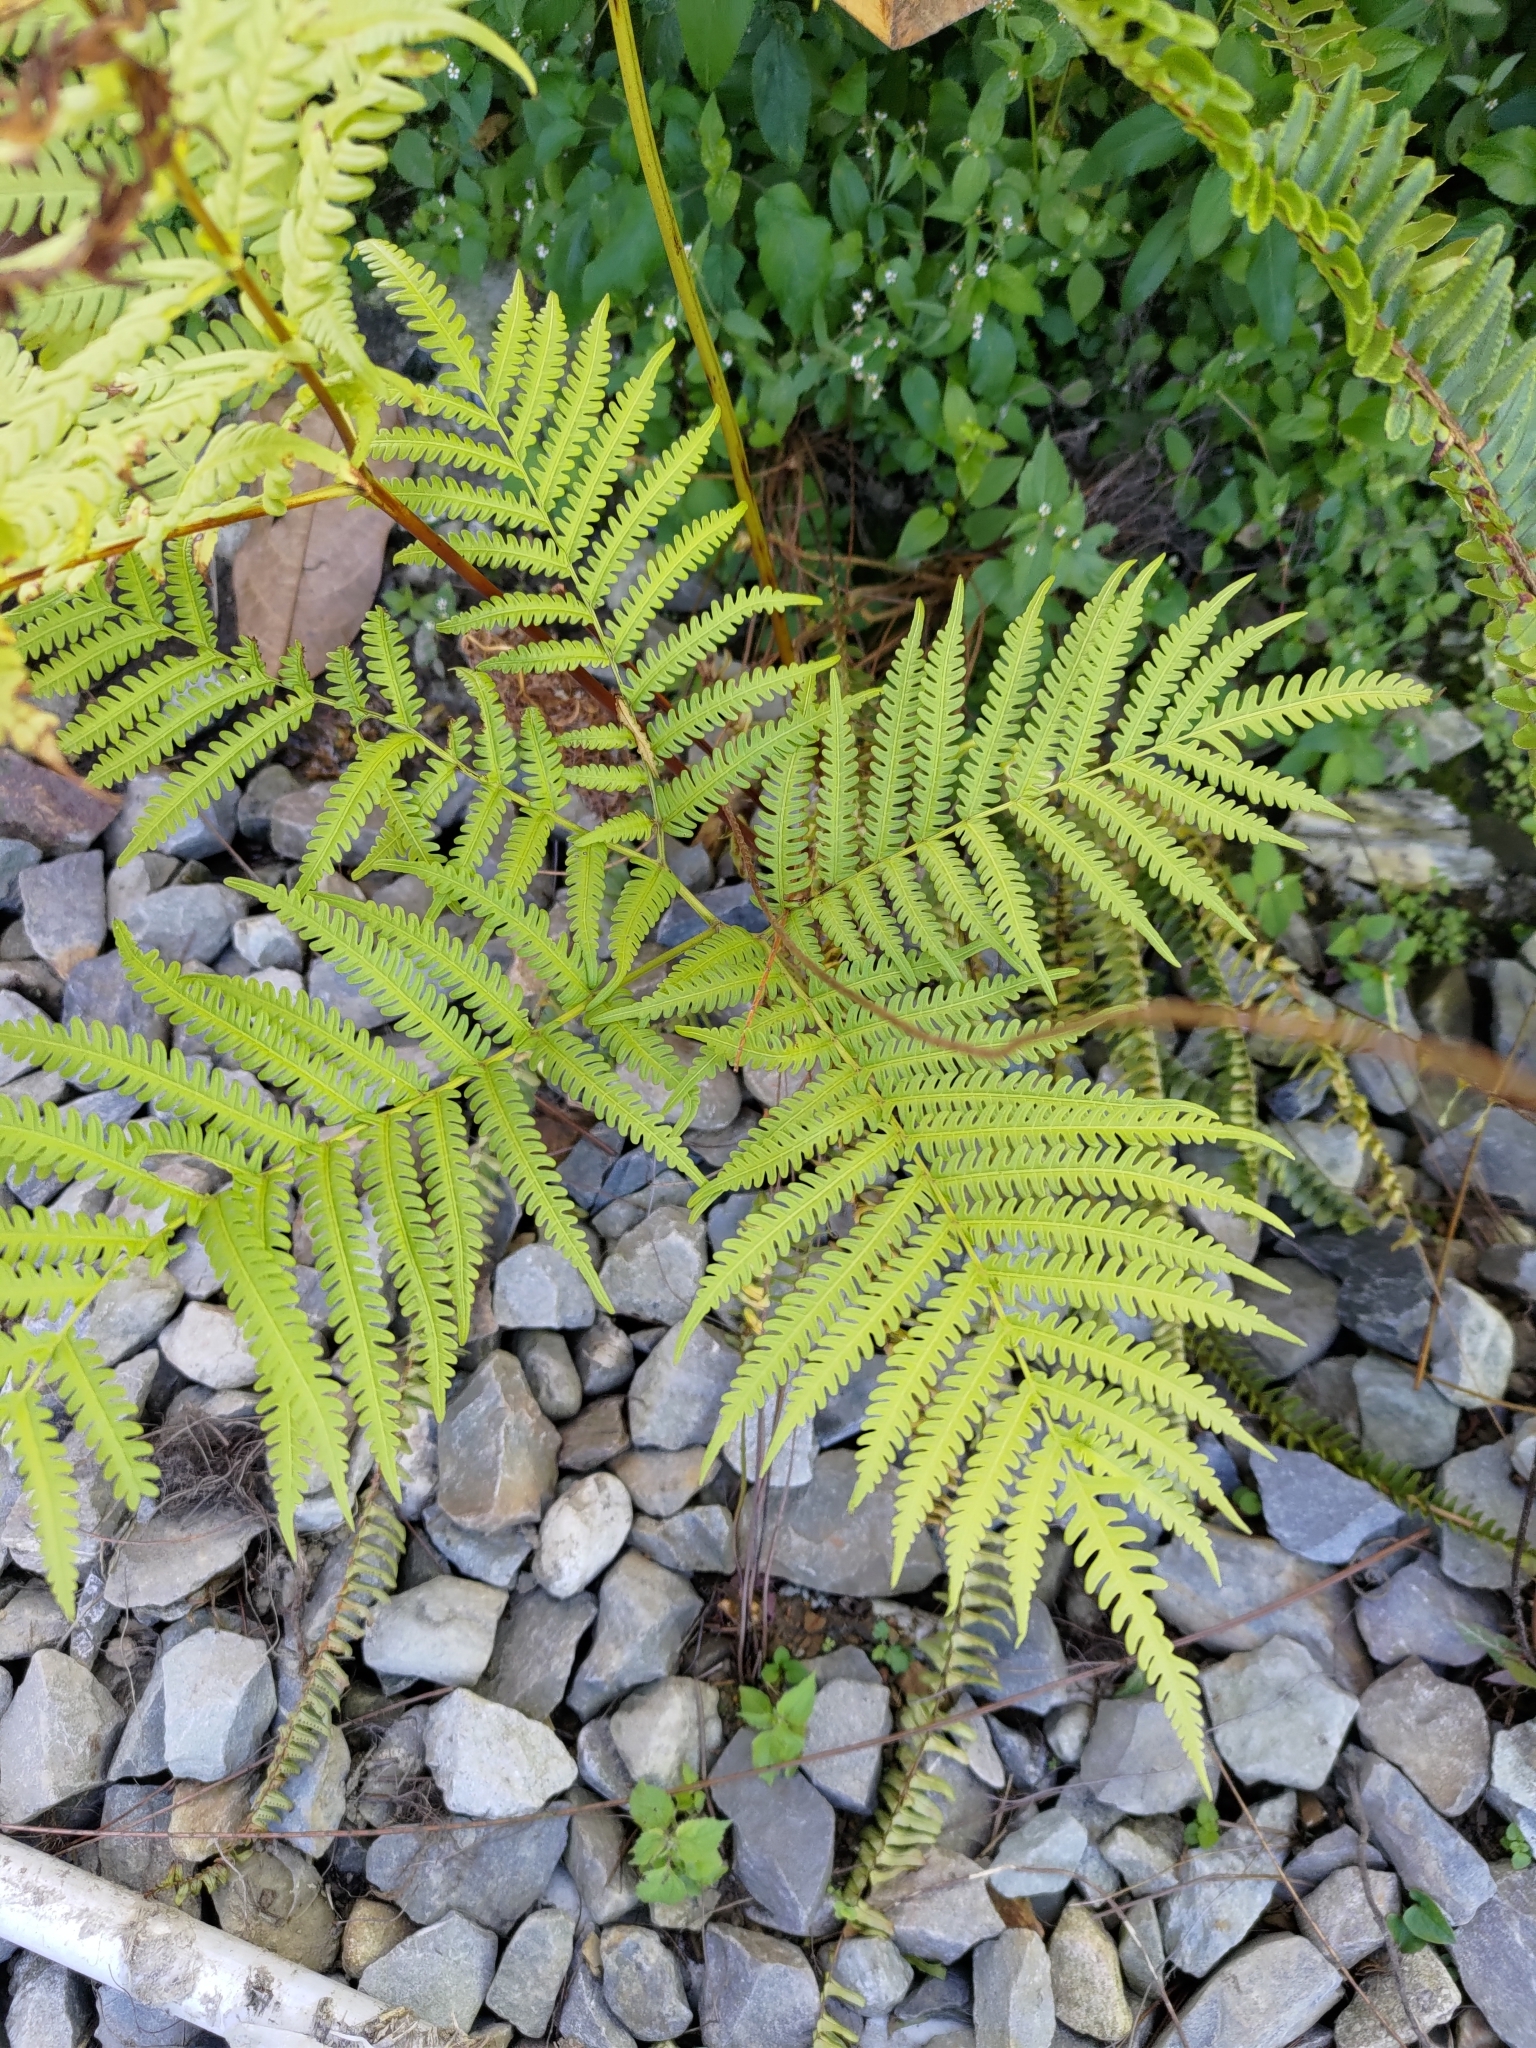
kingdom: Plantae
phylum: Tracheophyta
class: Polypodiopsida
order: Polypodiales
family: Pteridaceae
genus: Pteris
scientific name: Pteris wallichiana
